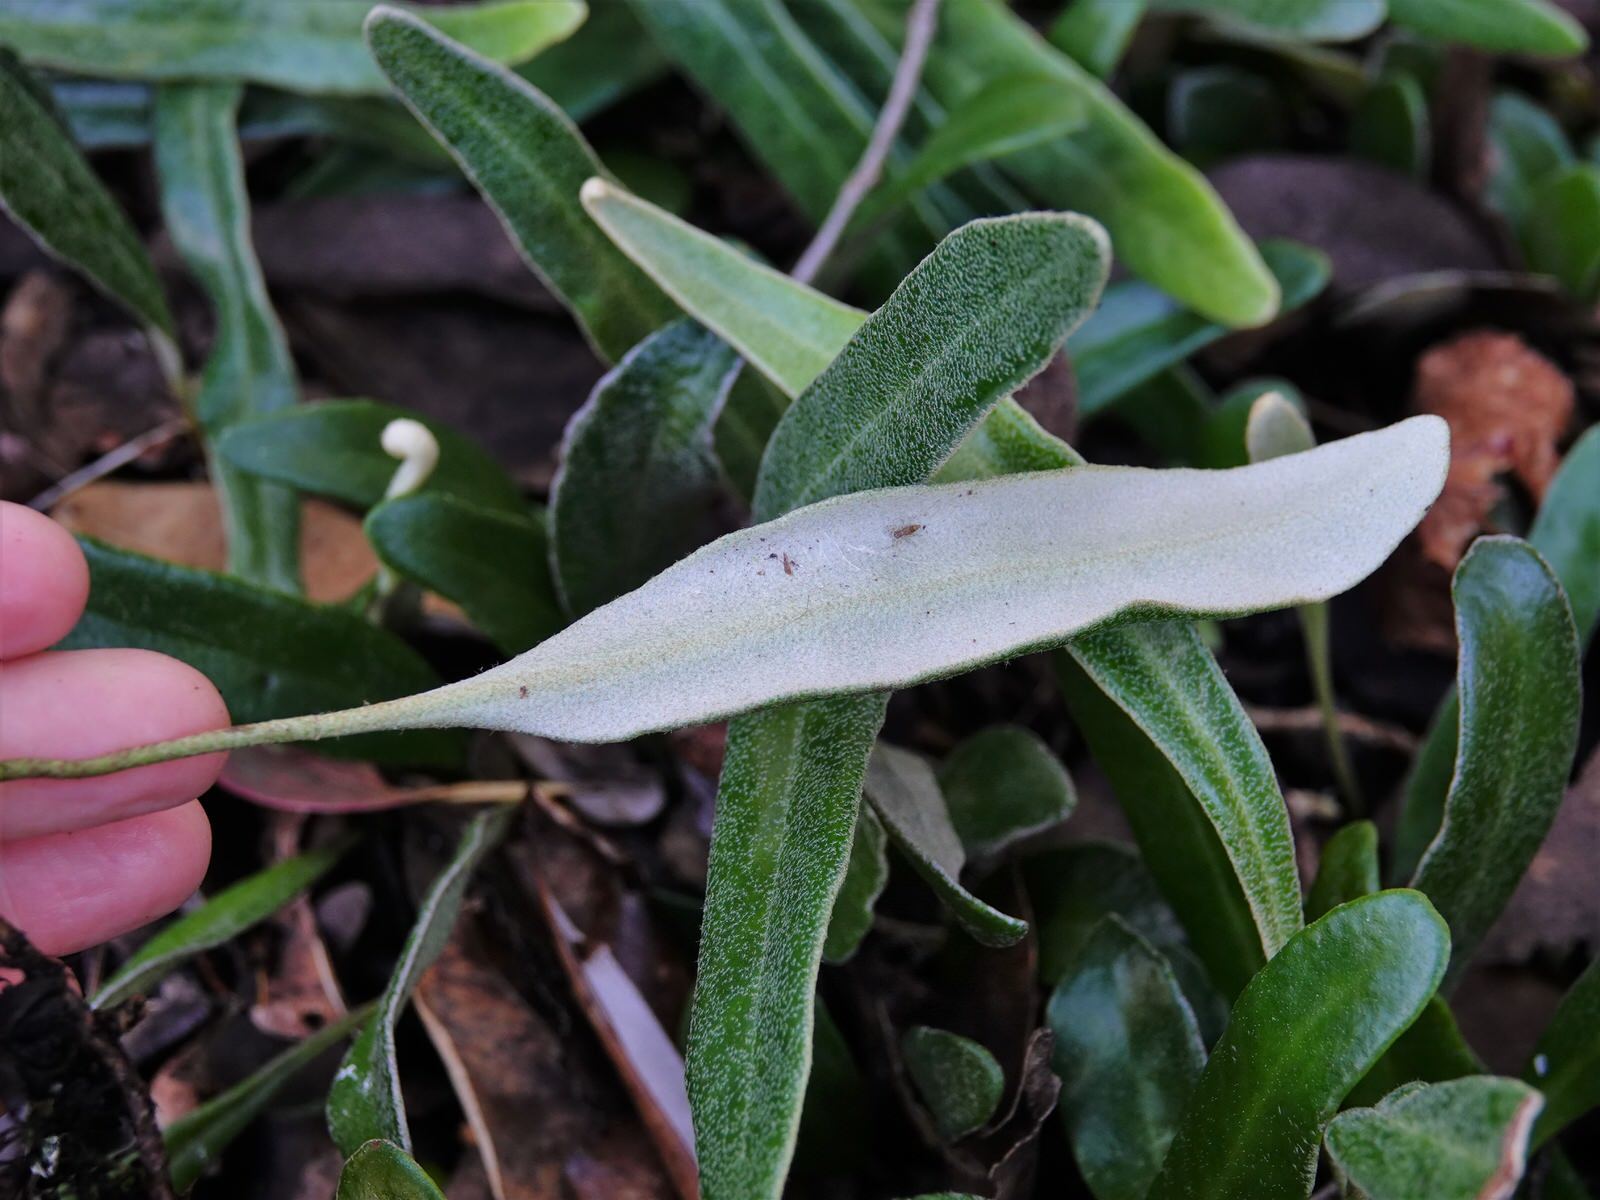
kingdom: Plantae
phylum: Tracheophyta
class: Polypodiopsida
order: Polypodiales
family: Polypodiaceae
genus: Pyrrosia
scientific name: Pyrrosia eleagnifolia
